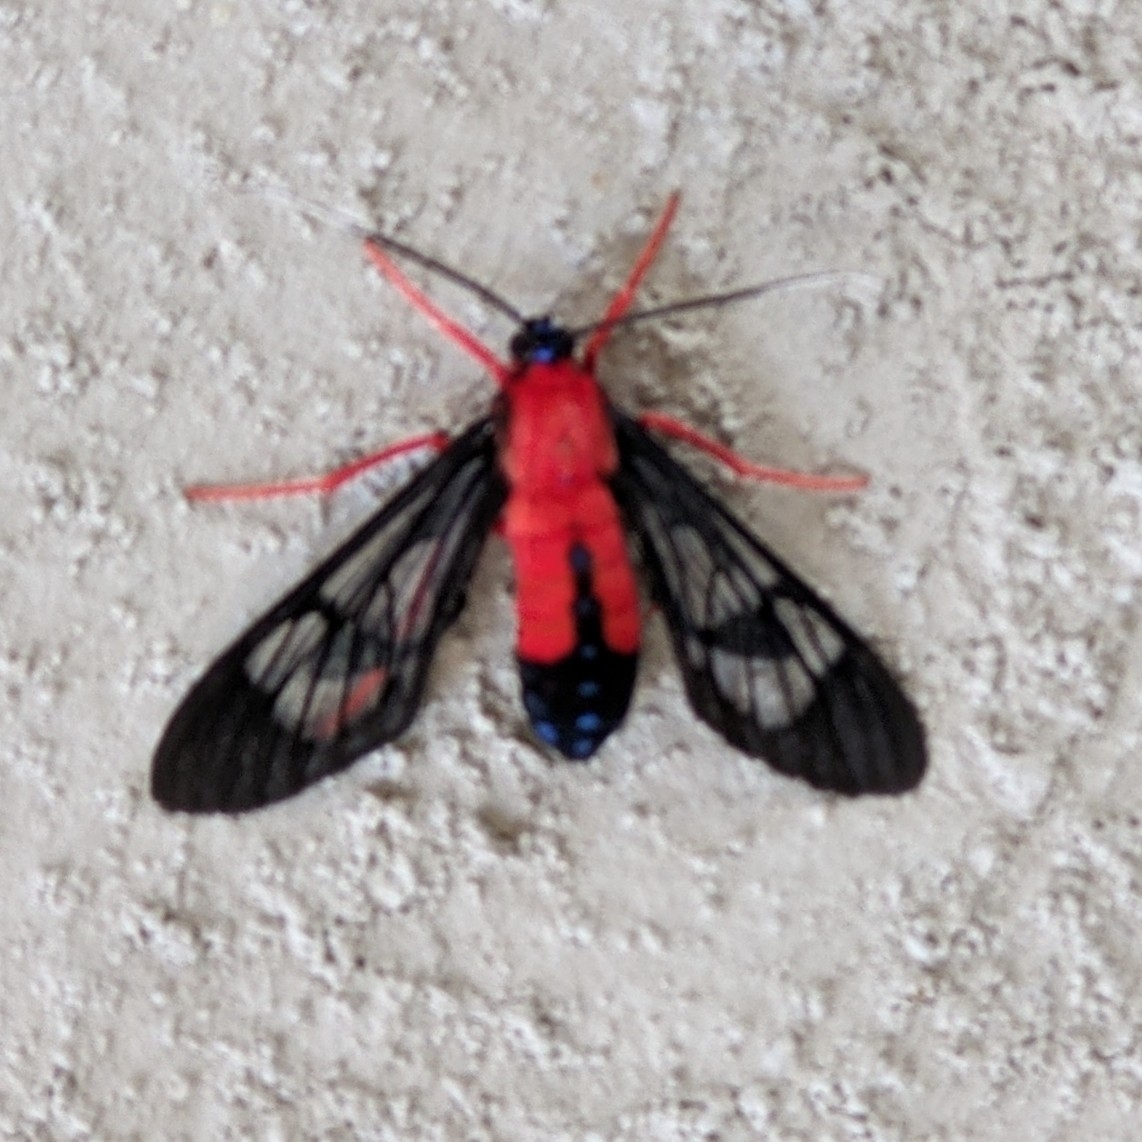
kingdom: Animalia
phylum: Arthropoda
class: Insecta
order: Lepidoptera
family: Erebidae
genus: Cosmosoma
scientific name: Cosmosoma myrodora
